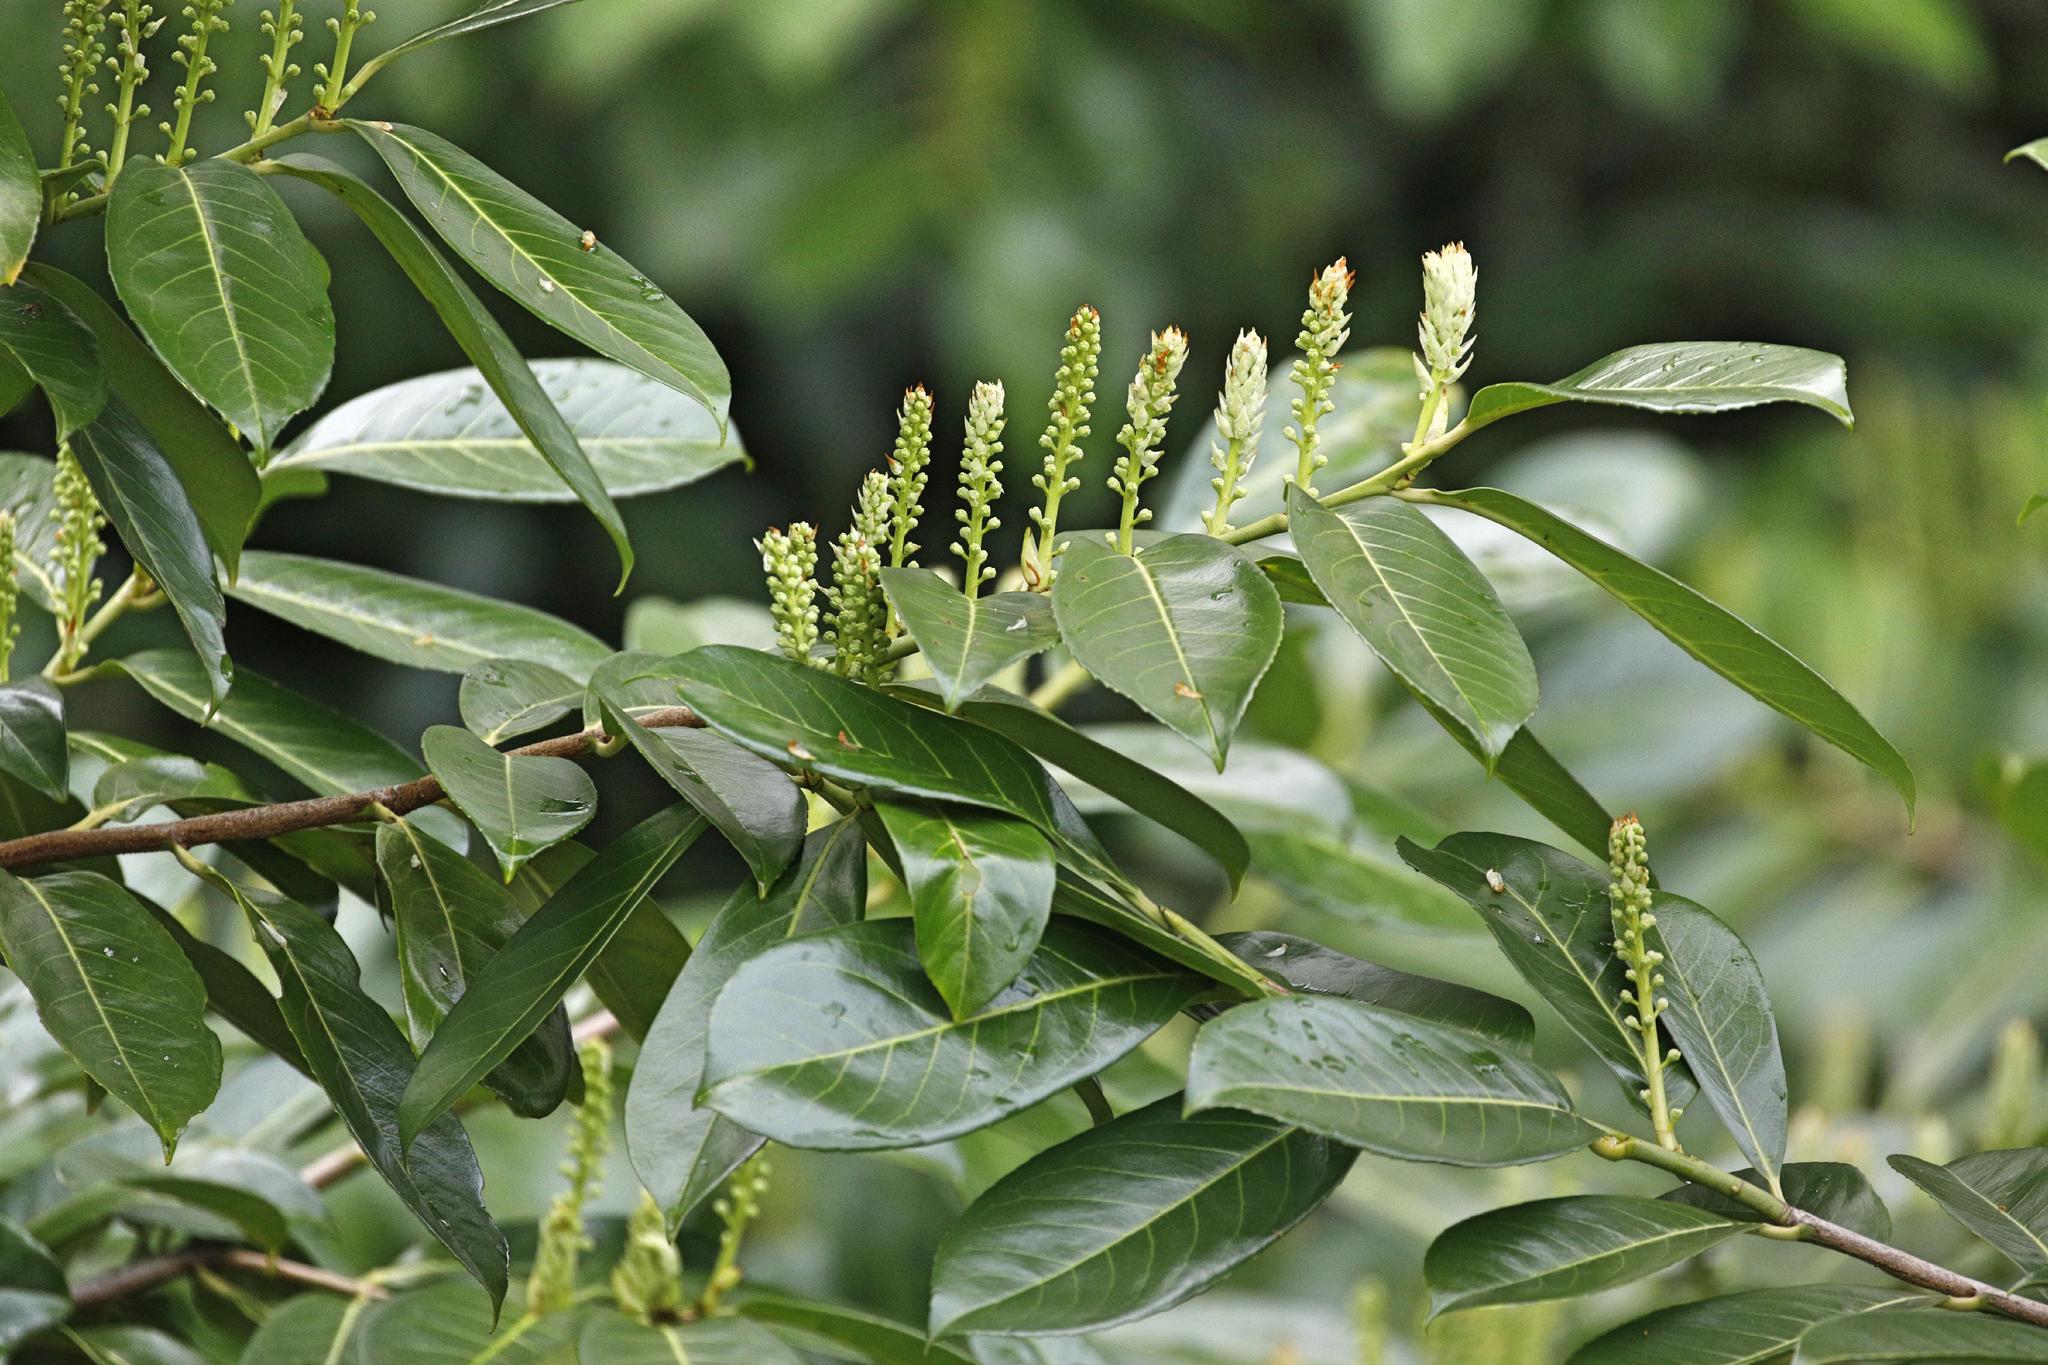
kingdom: Plantae
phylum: Tracheophyta
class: Magnoliopsida
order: Rosales
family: Rosaceae
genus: Prunus
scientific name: Prunus laurocerasus
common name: Cherry laurel
